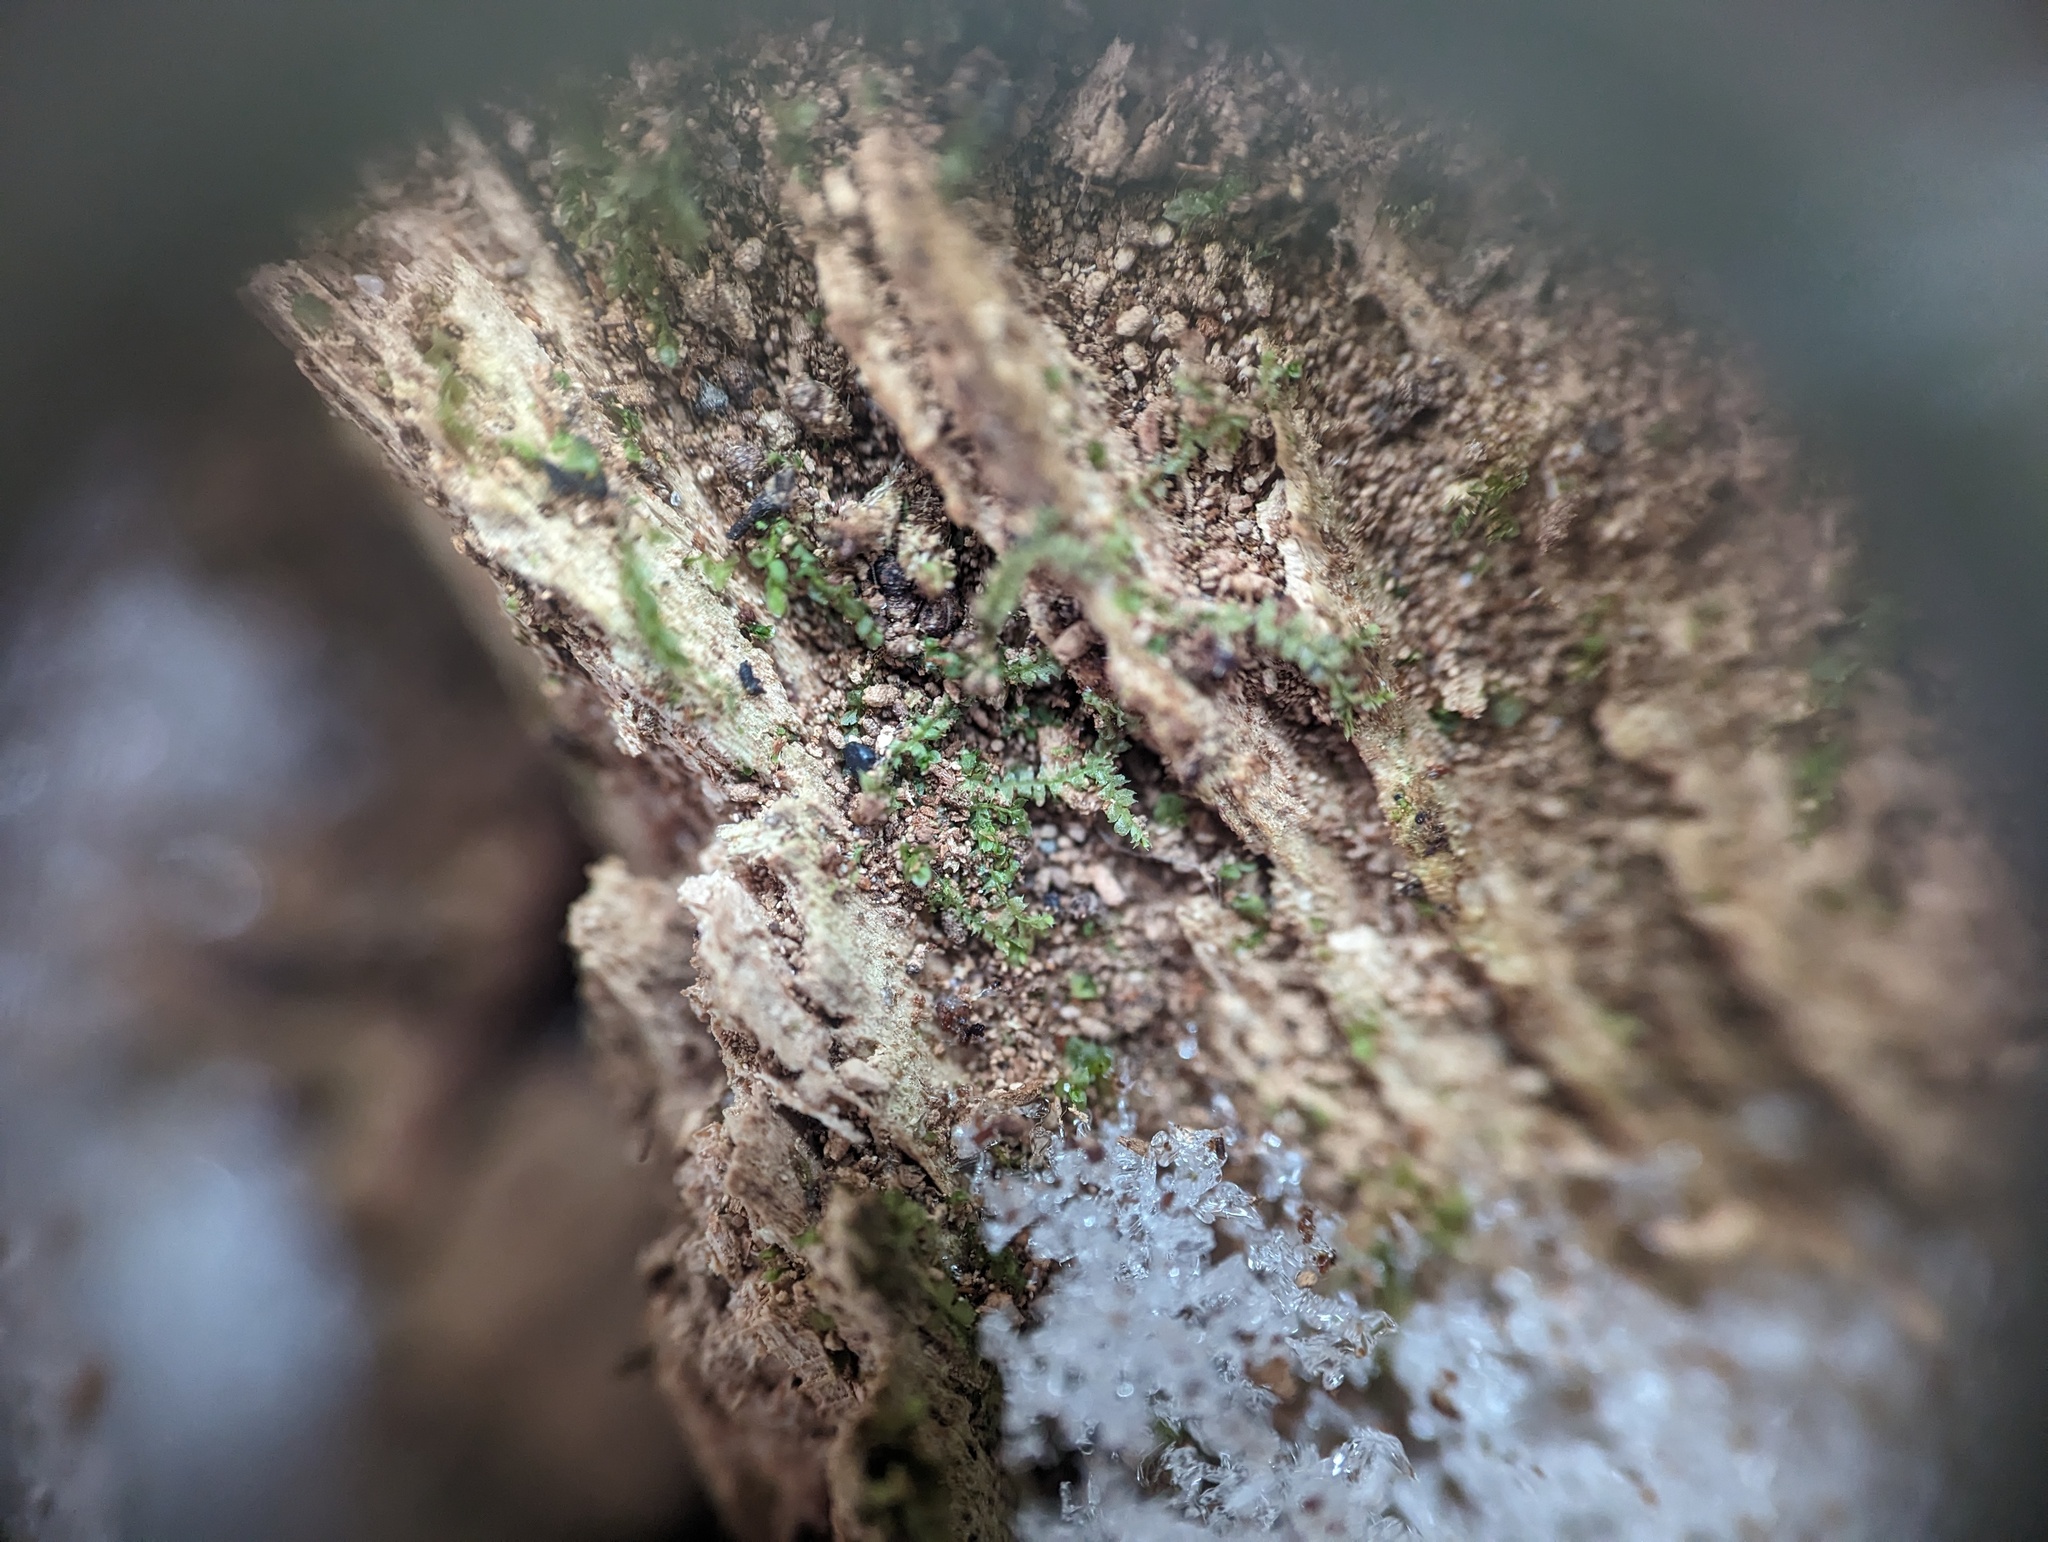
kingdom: Plantae
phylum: Marchantiophyta
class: Jungermanniopsida
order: Jungermanniales
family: Lophocoleaceae
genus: Lophocolea
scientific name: Lophocolea minor
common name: Lesser crestwort
